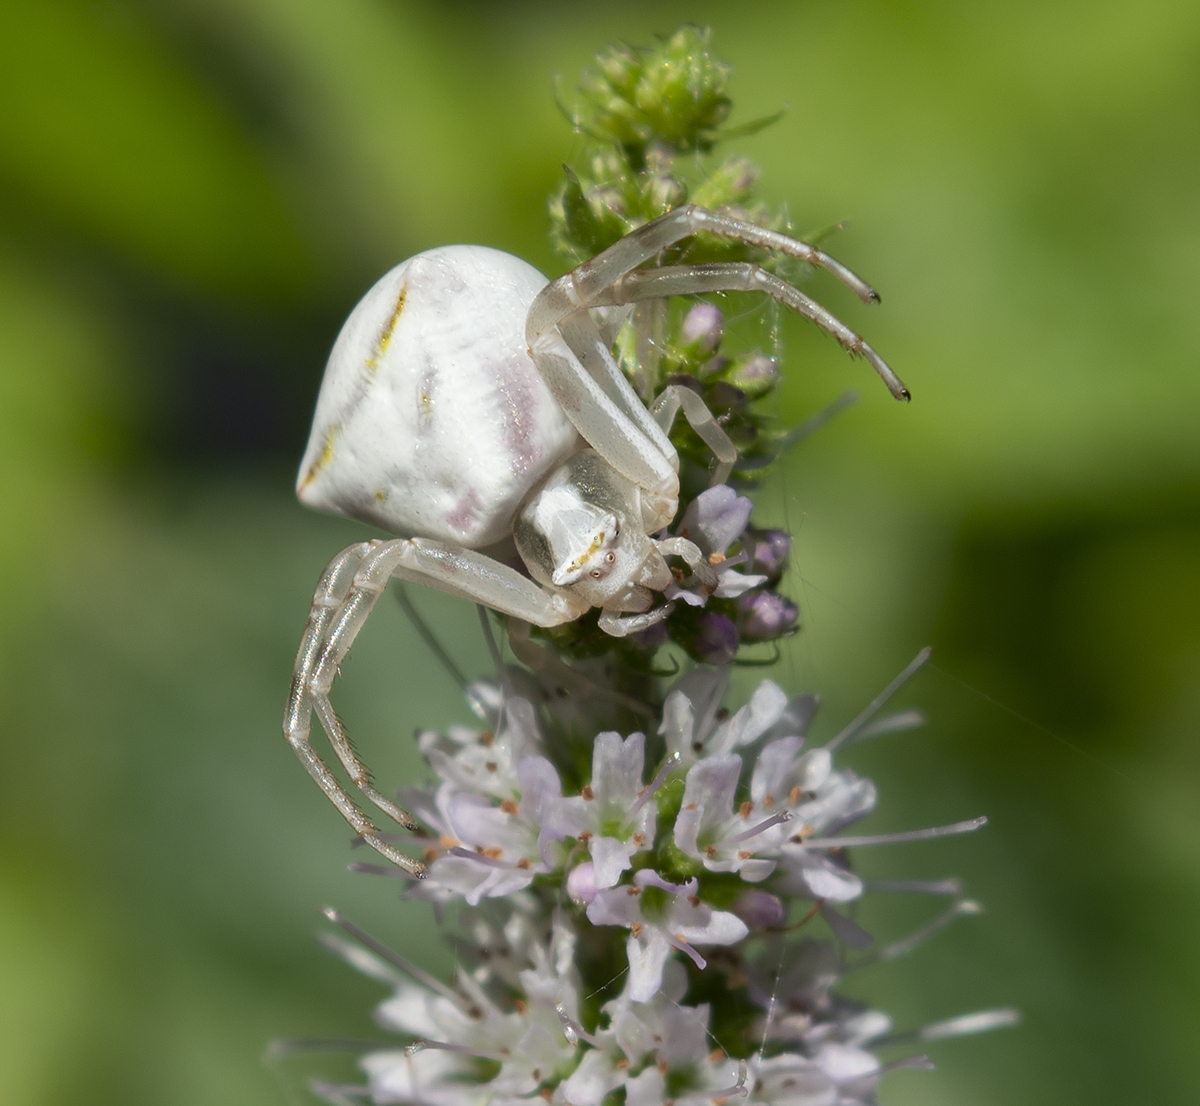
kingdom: Animalia
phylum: Arthropoda
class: Arachnida
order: Araneae
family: Thomisidae
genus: Thomisus
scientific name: Thomisus onustus
